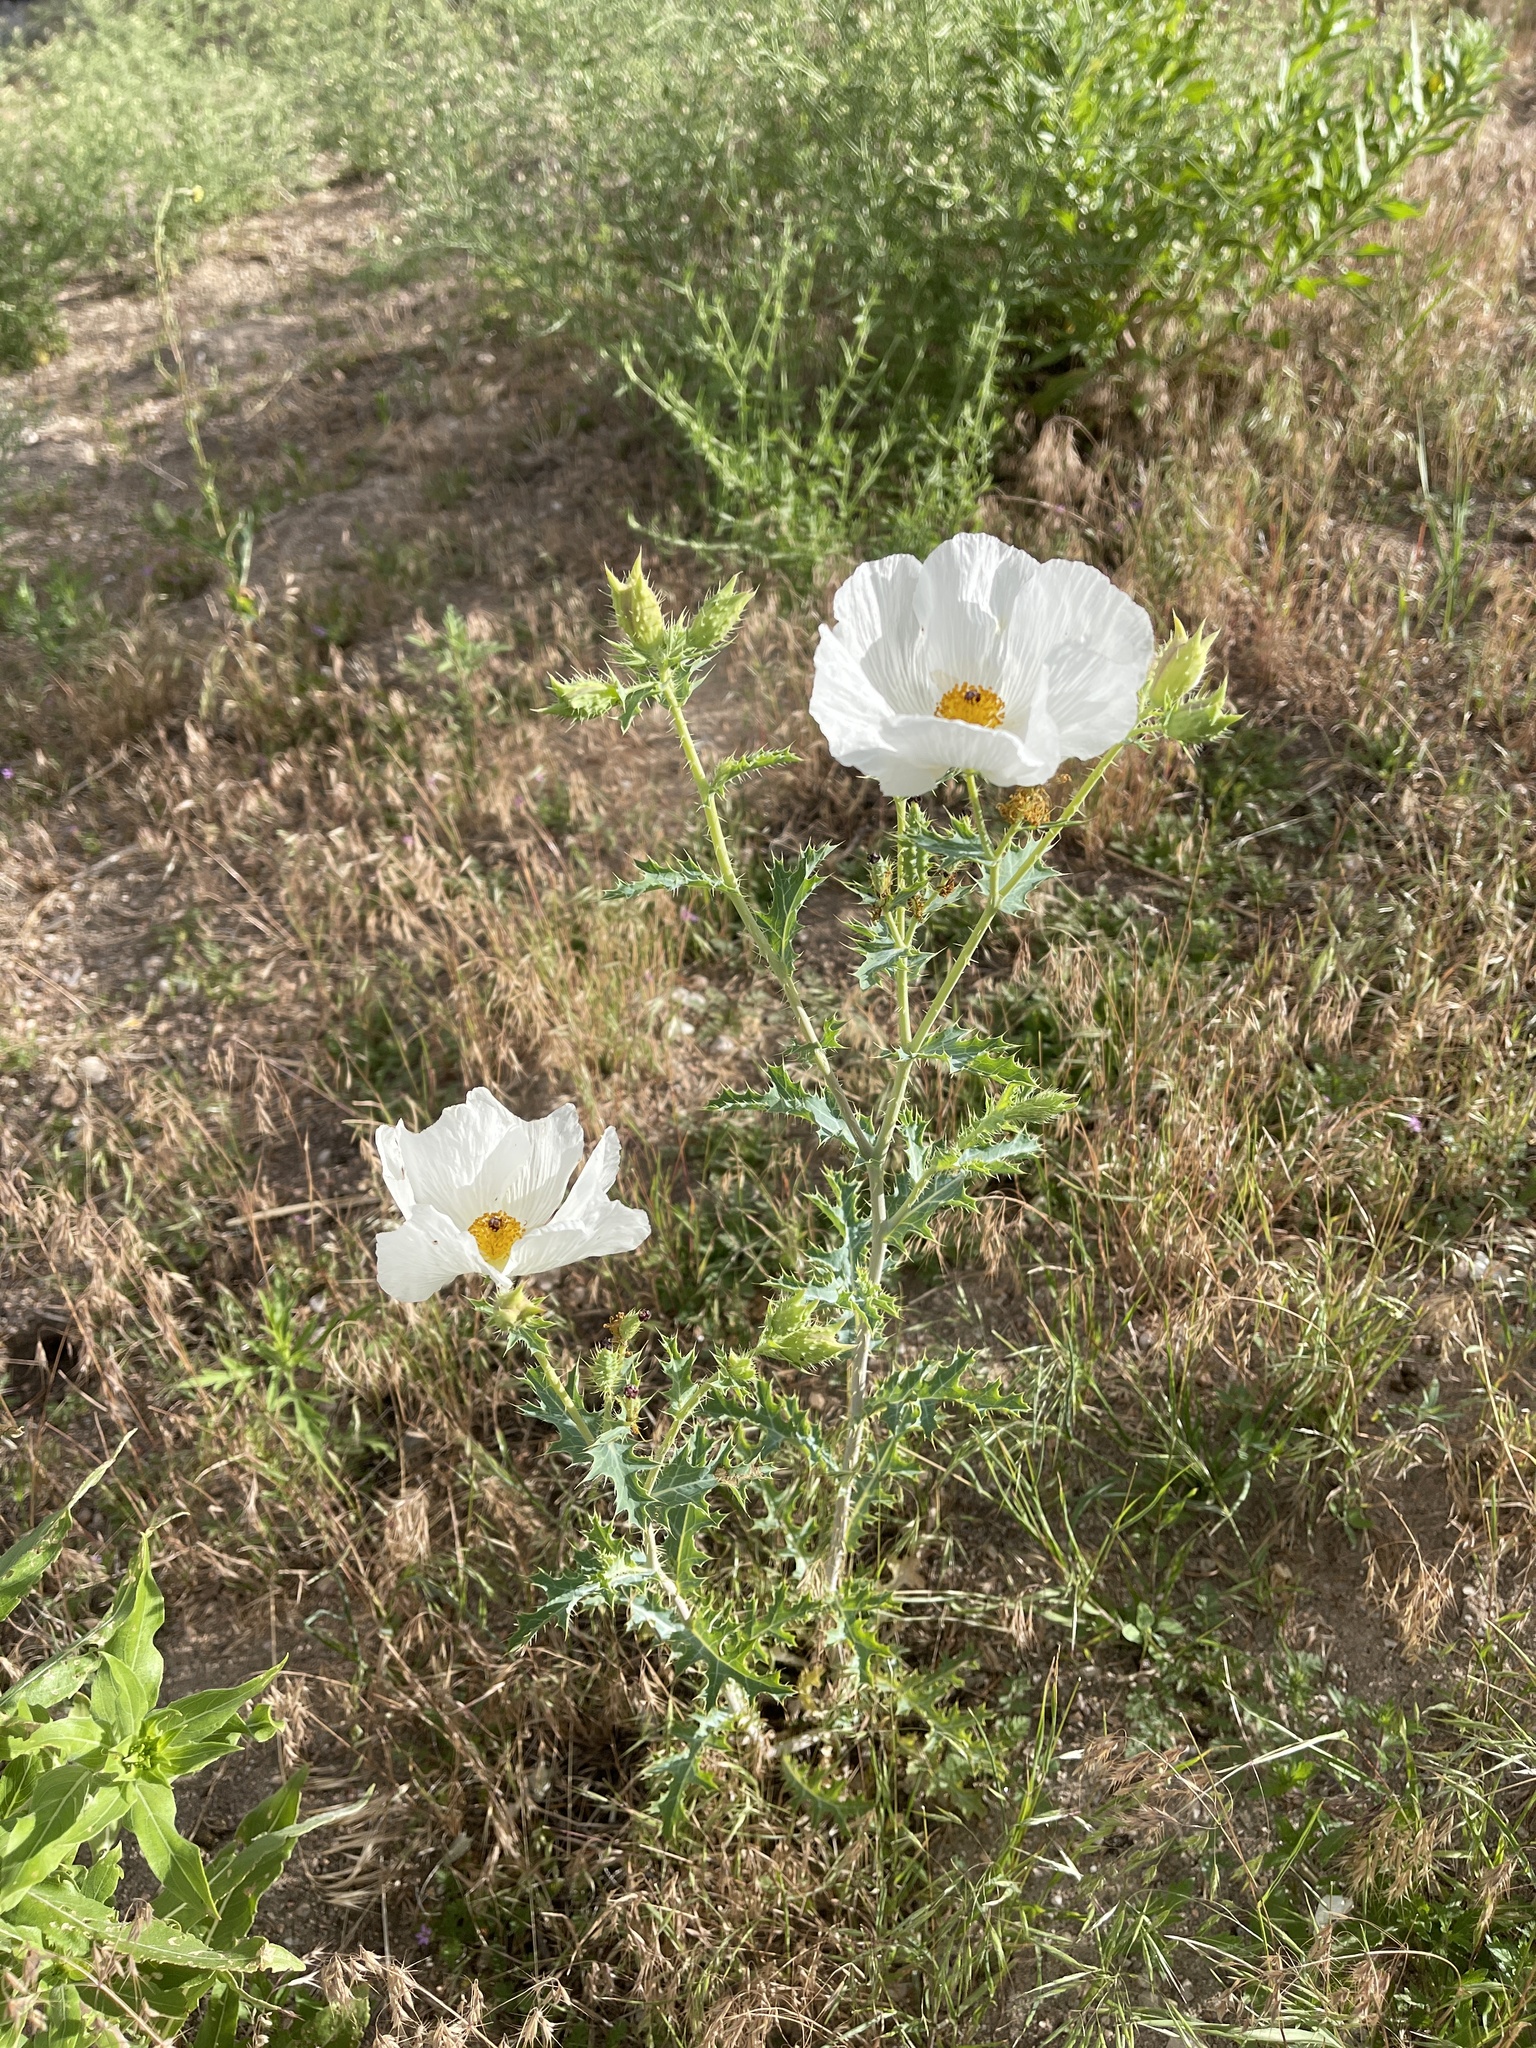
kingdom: Plantae
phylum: Tracheophyta
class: Magnoliopsida
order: Ranunculales
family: Papaveraceae
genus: Argemone
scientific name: Argemone polyanthemos
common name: Plains prickly-poppy
